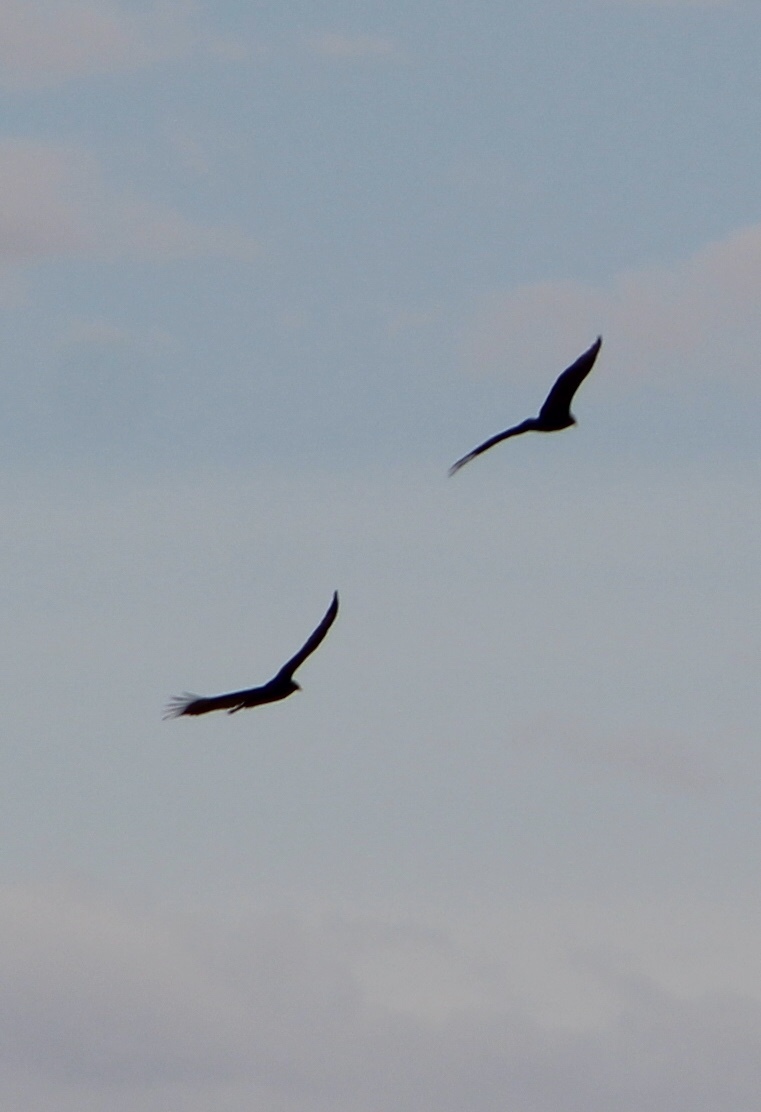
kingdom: Animalia
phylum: Chordata
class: Aves
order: Accipitriformes
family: Cathartidae
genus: Cathartes
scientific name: Cathartes aura
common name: Turkey vulture
